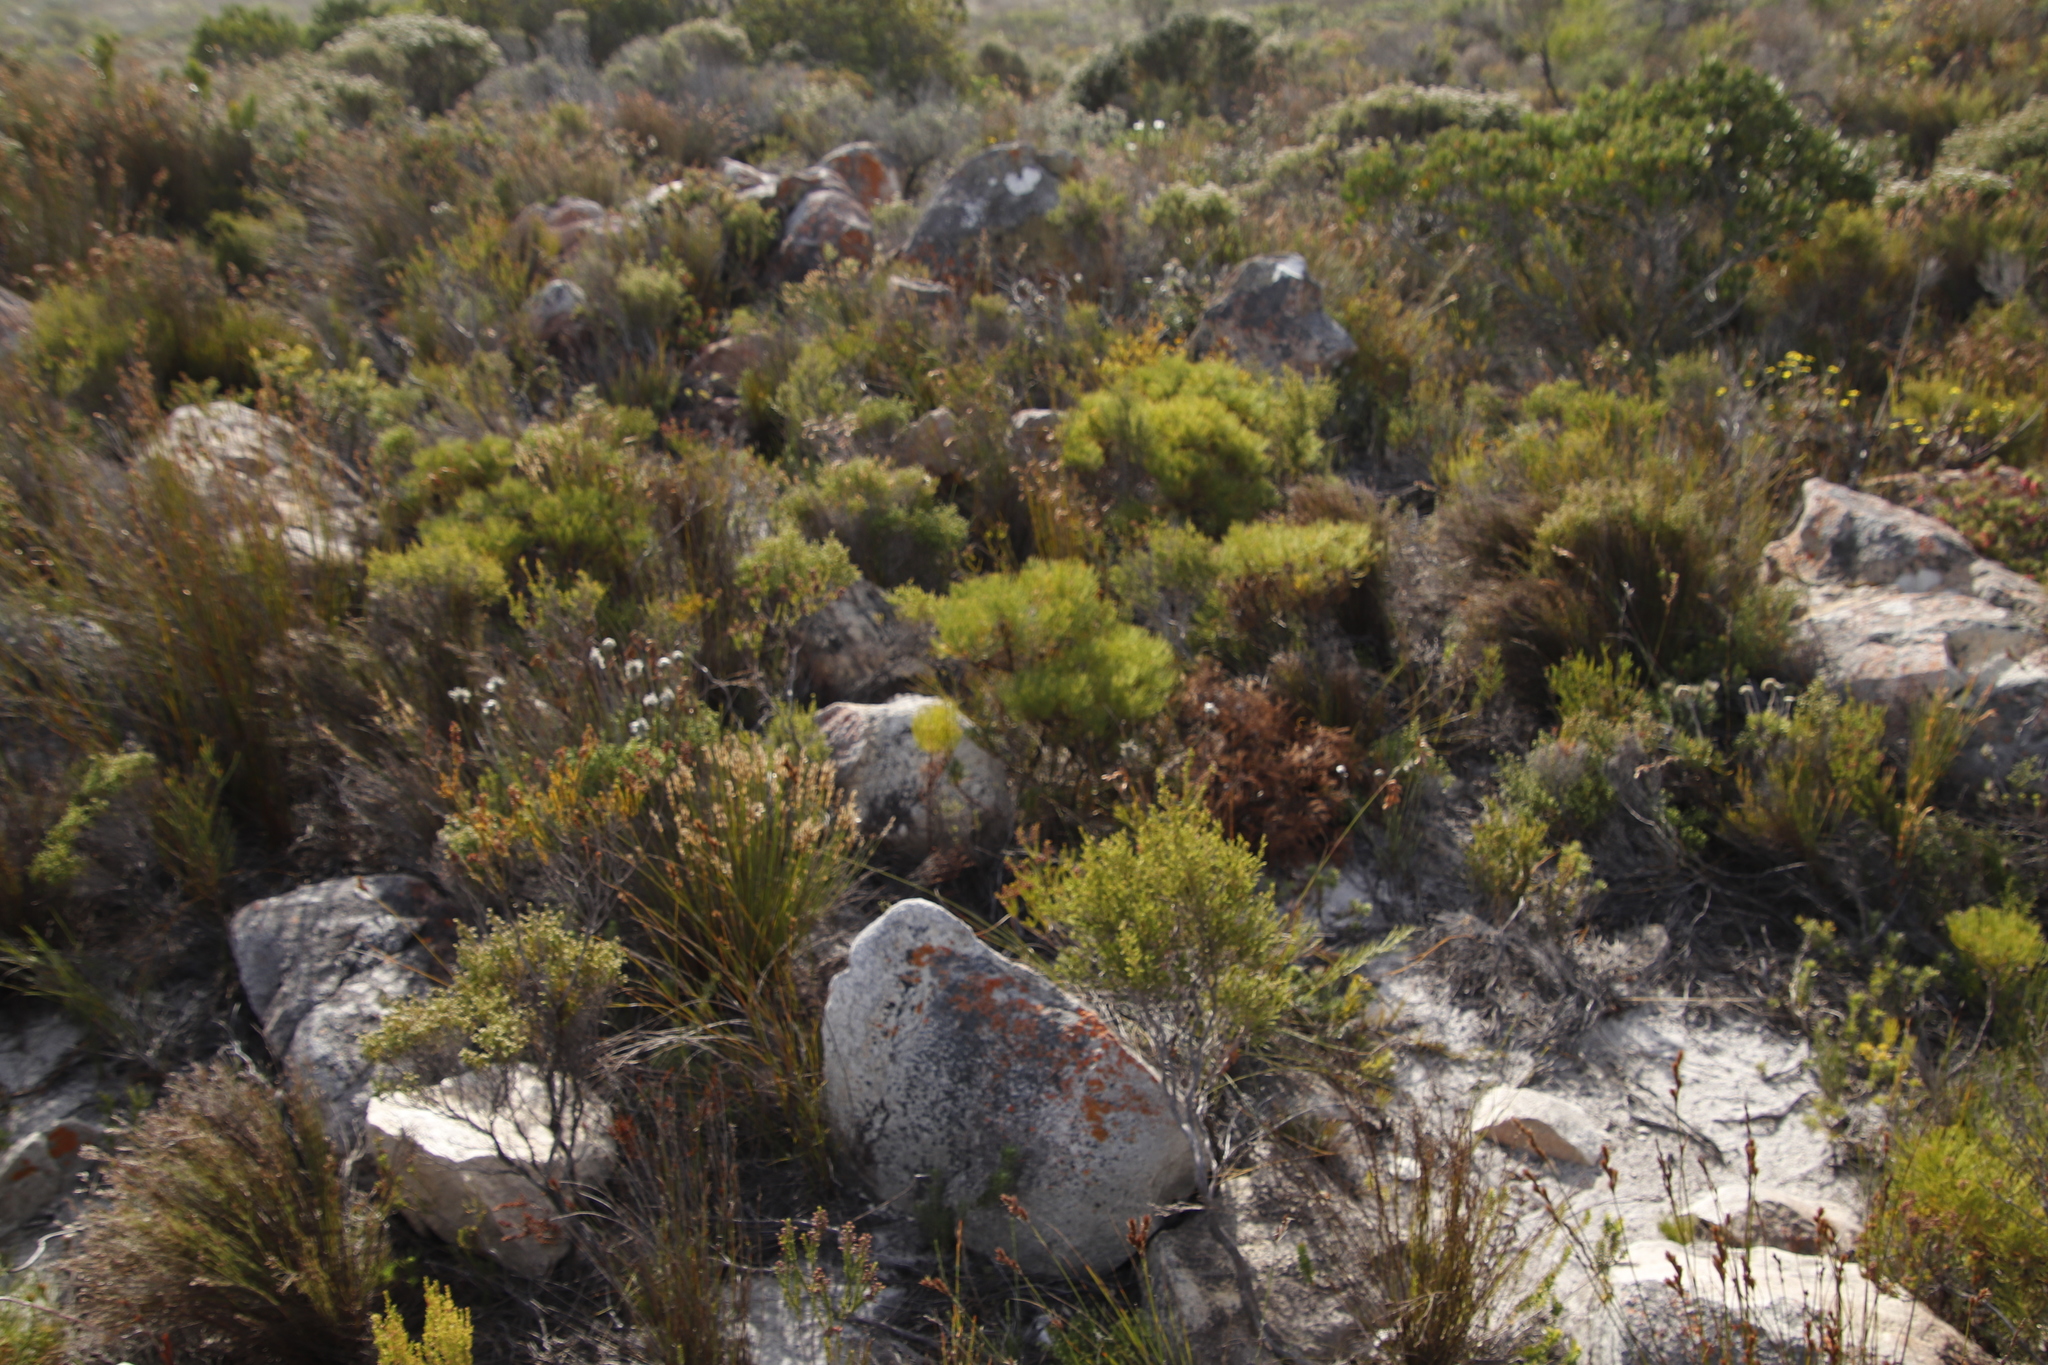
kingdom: Plantae
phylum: Tracheophyta
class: Magnoliopsida
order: Proteales
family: Proteaceae
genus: Serruria
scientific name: Serruria ascendens
